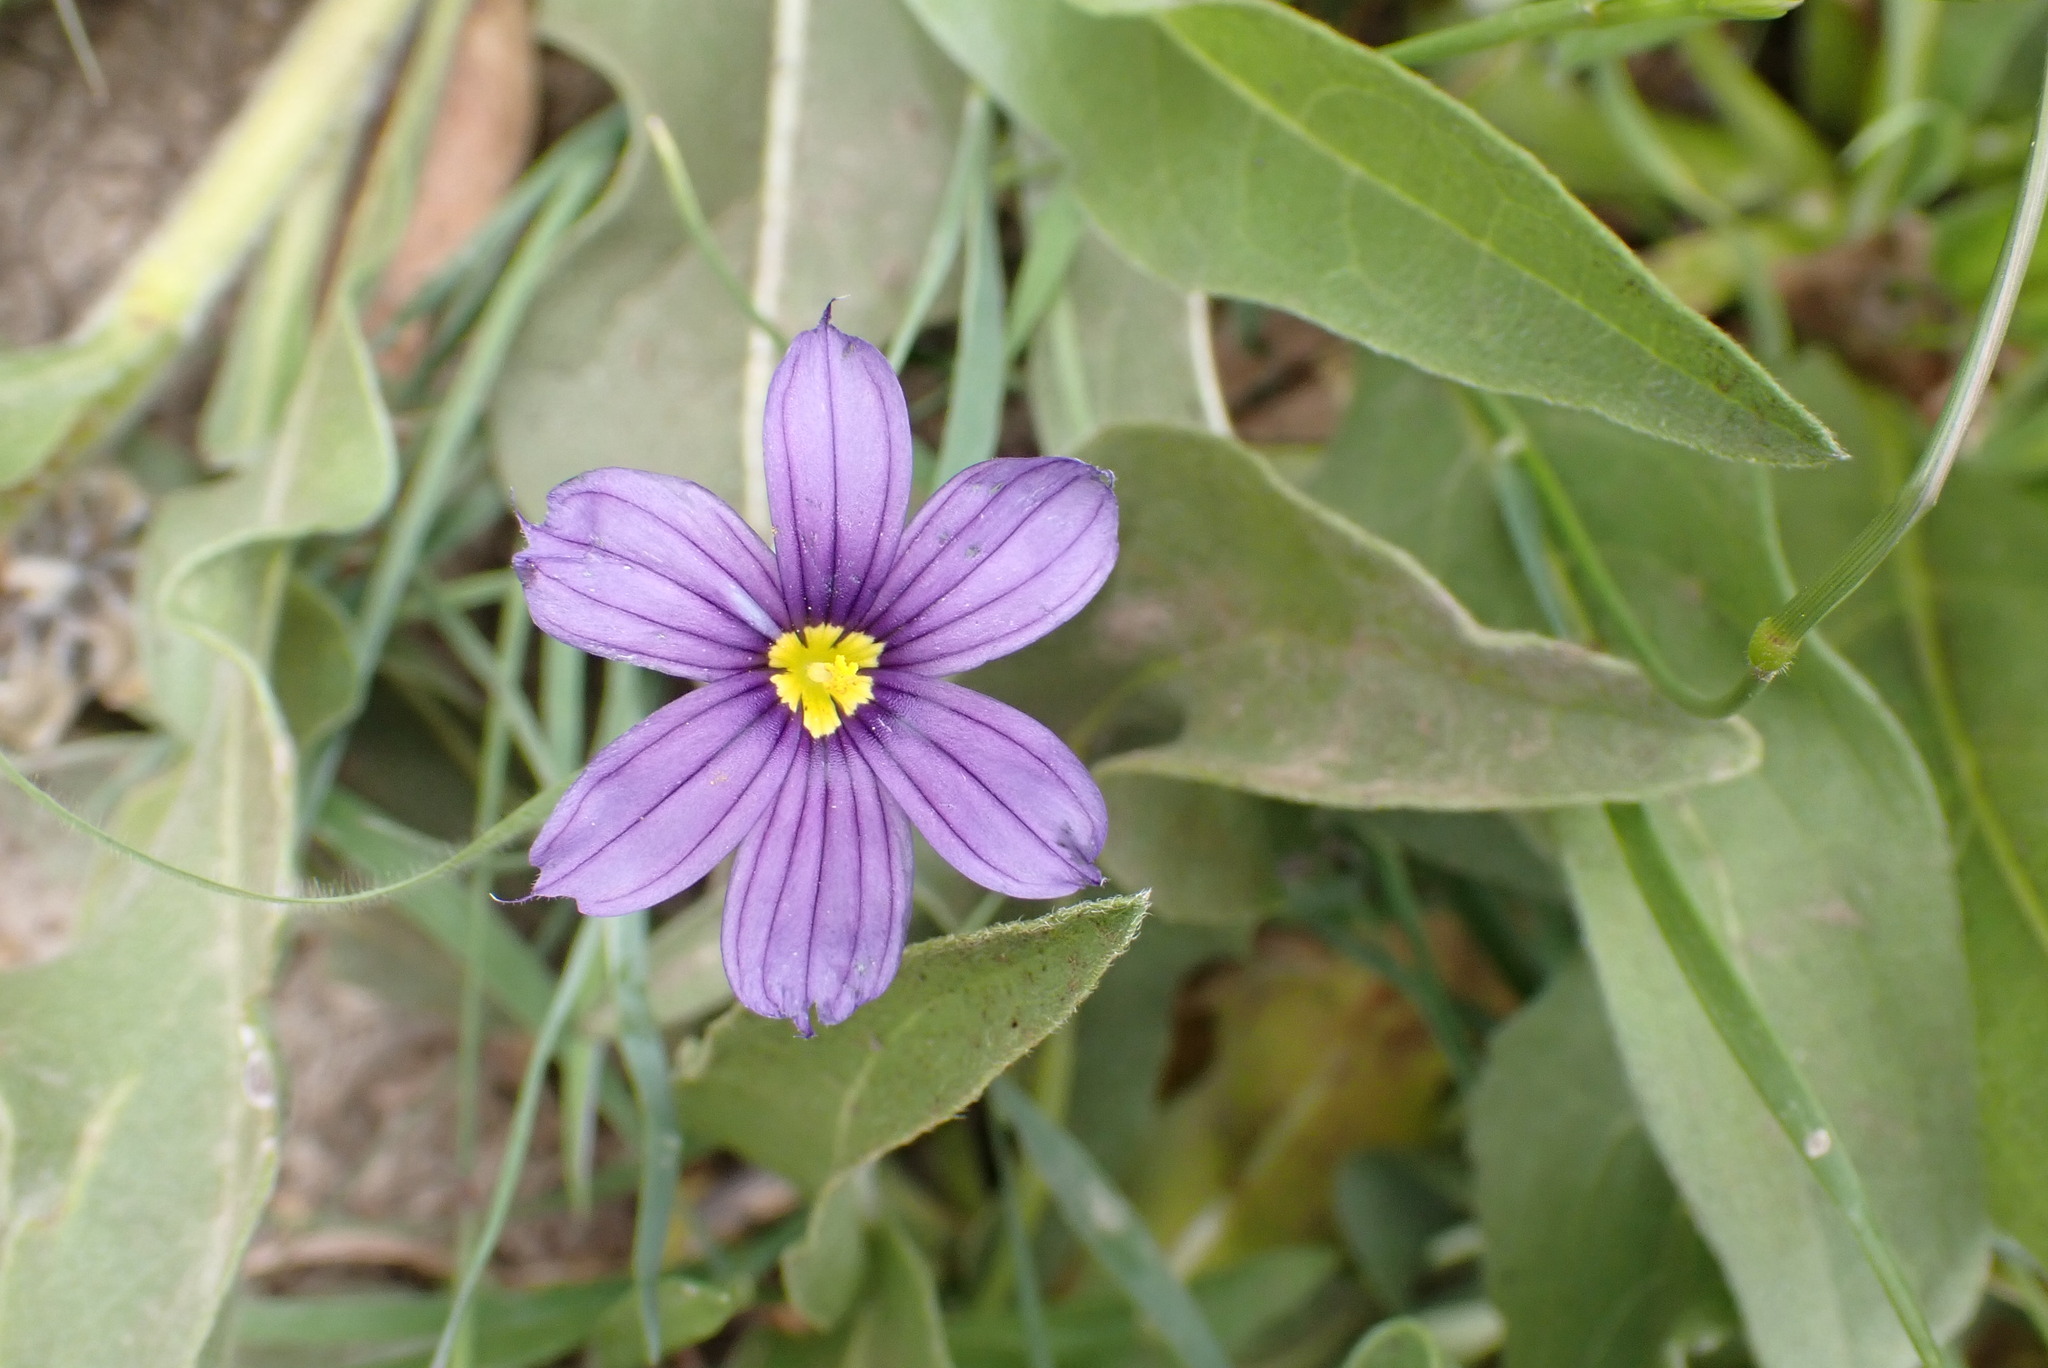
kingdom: Plantae
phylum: Tracheophyta
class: Liliopsida
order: Asparagales
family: Iridaceae
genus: Sisyrinchium
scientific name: Sisyrinchium bellum
